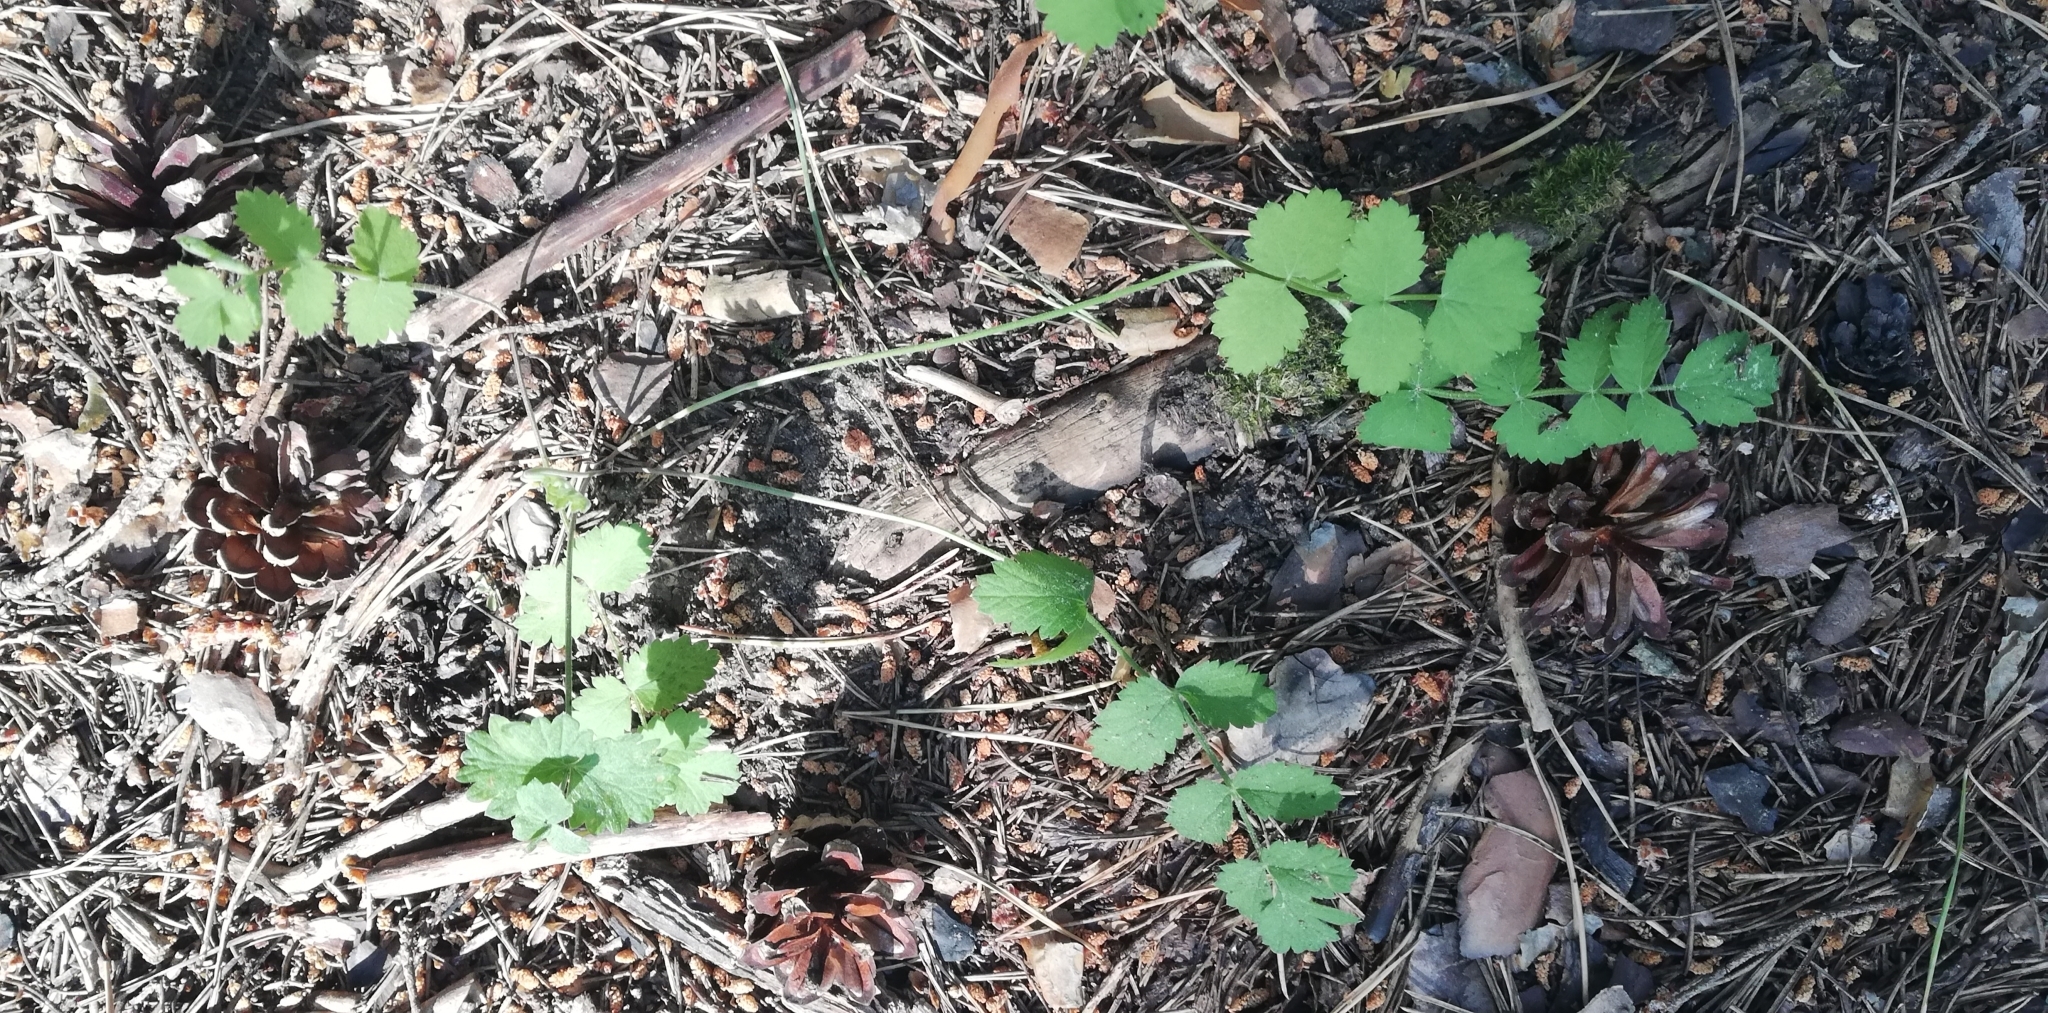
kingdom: Plantae
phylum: Tracheophyta
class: Magnoliopsida
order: Apiales
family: Apiaceae
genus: Pimpinella
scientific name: Pimpinella saxifraga
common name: Burnet-saxifrage
